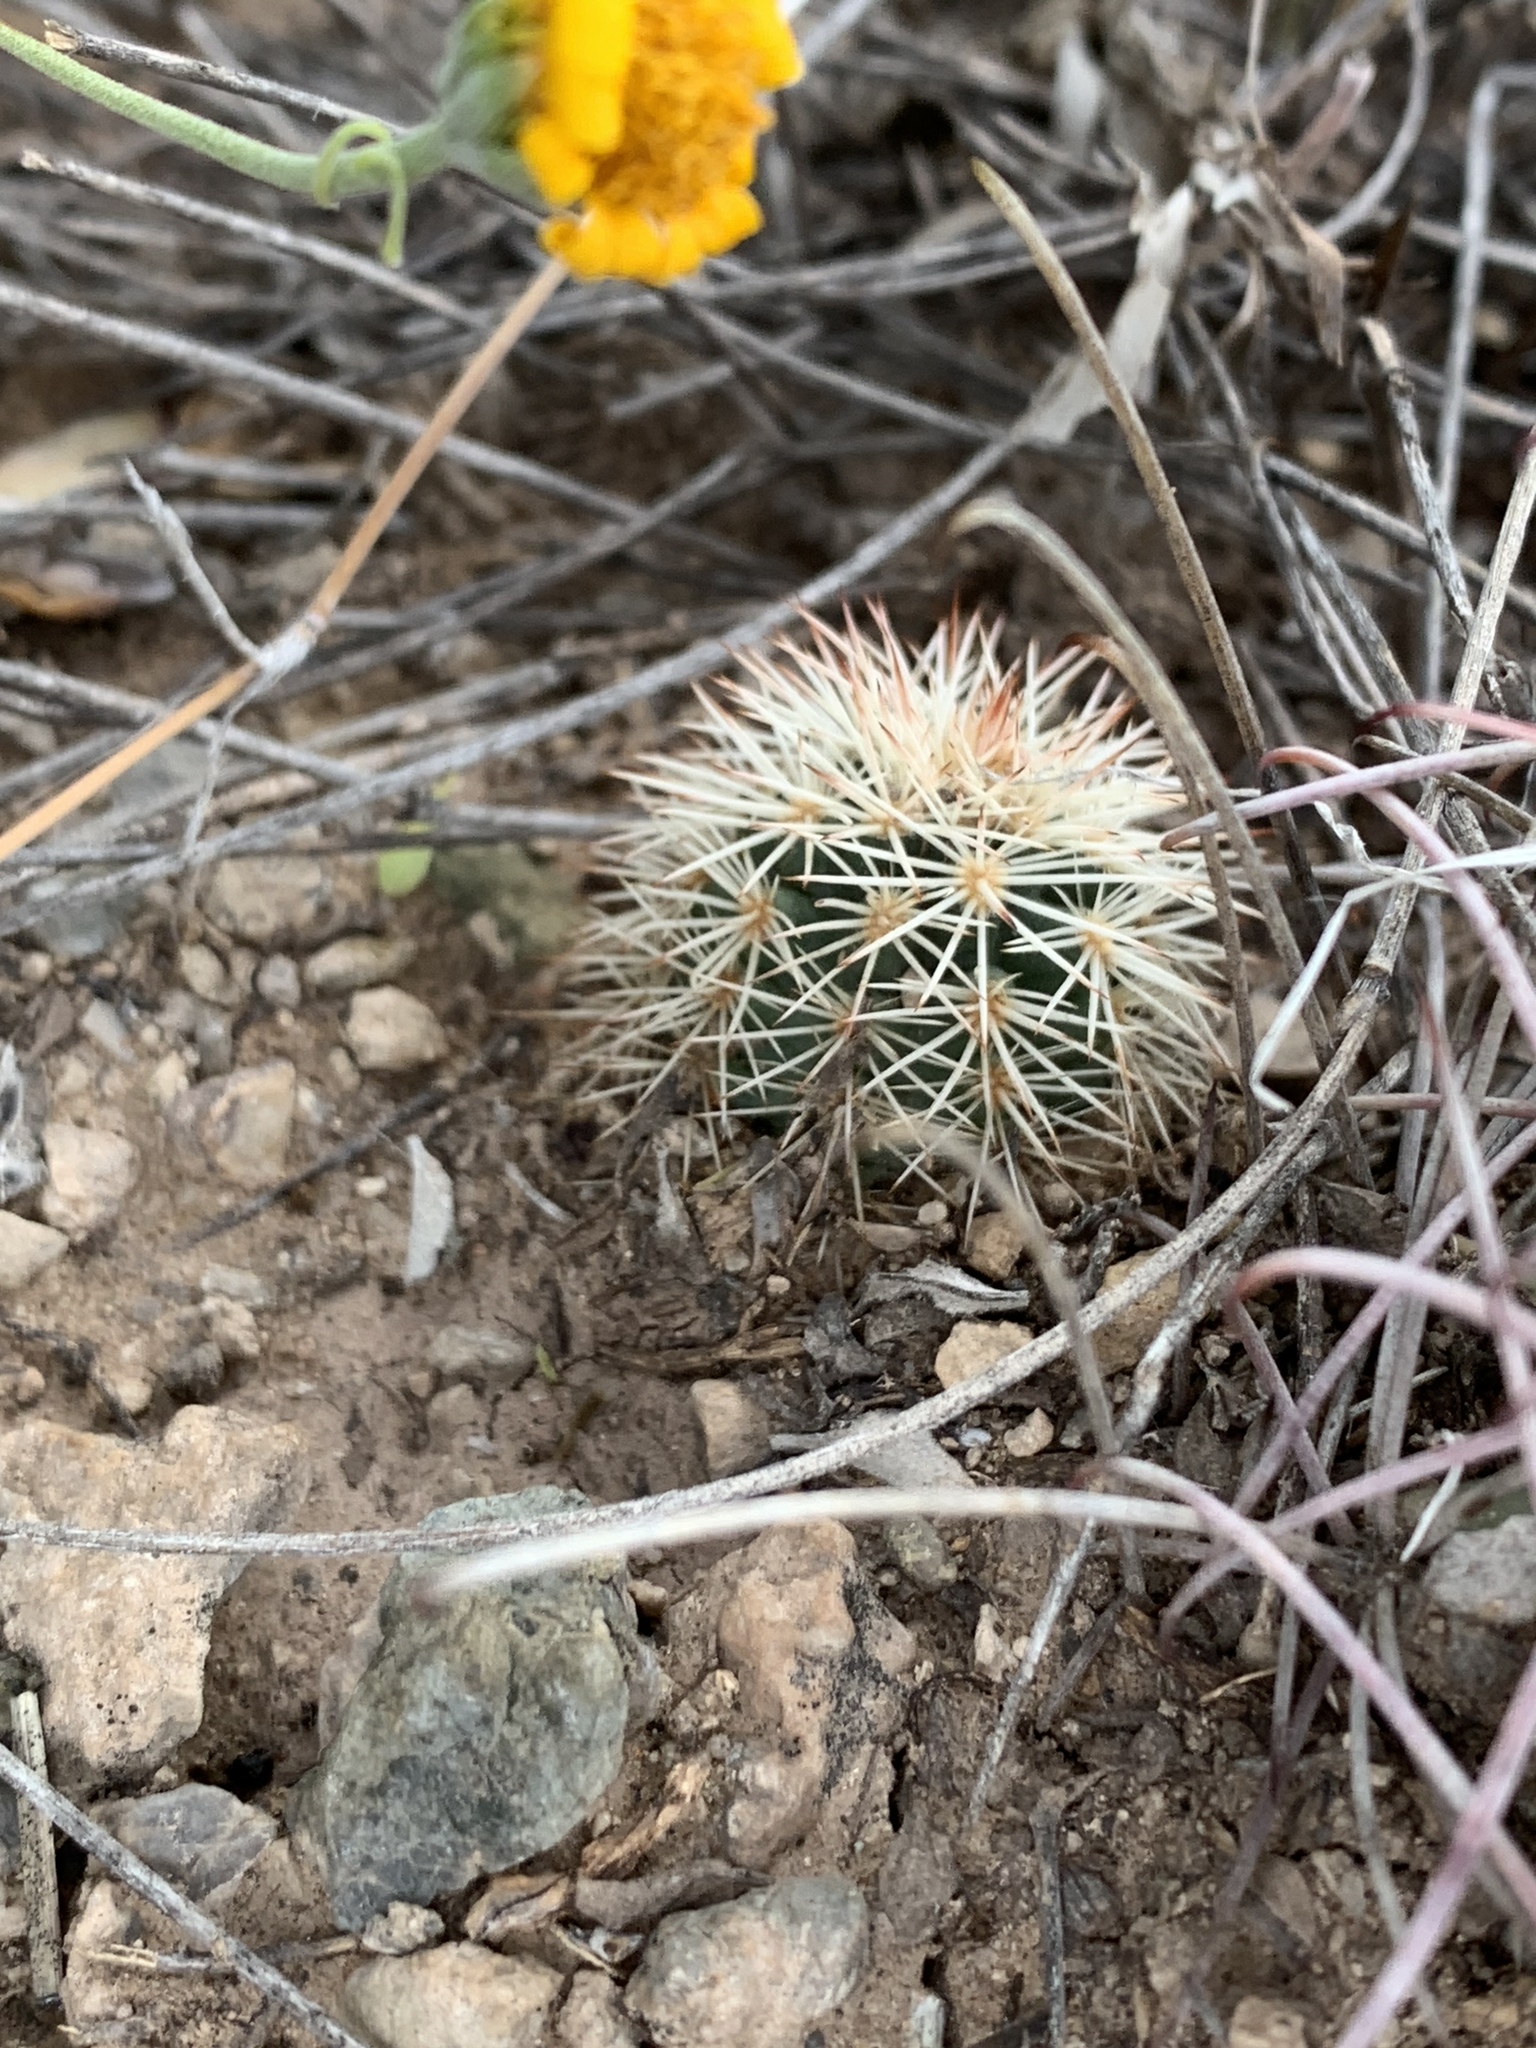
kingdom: Plantae
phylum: Tracheophyta
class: Magnoliopsida
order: Caryophyllales
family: Cactaceae
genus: Echinocereus
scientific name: Echinocereus dasyacanthus
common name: Spiny hedgehog cactus
